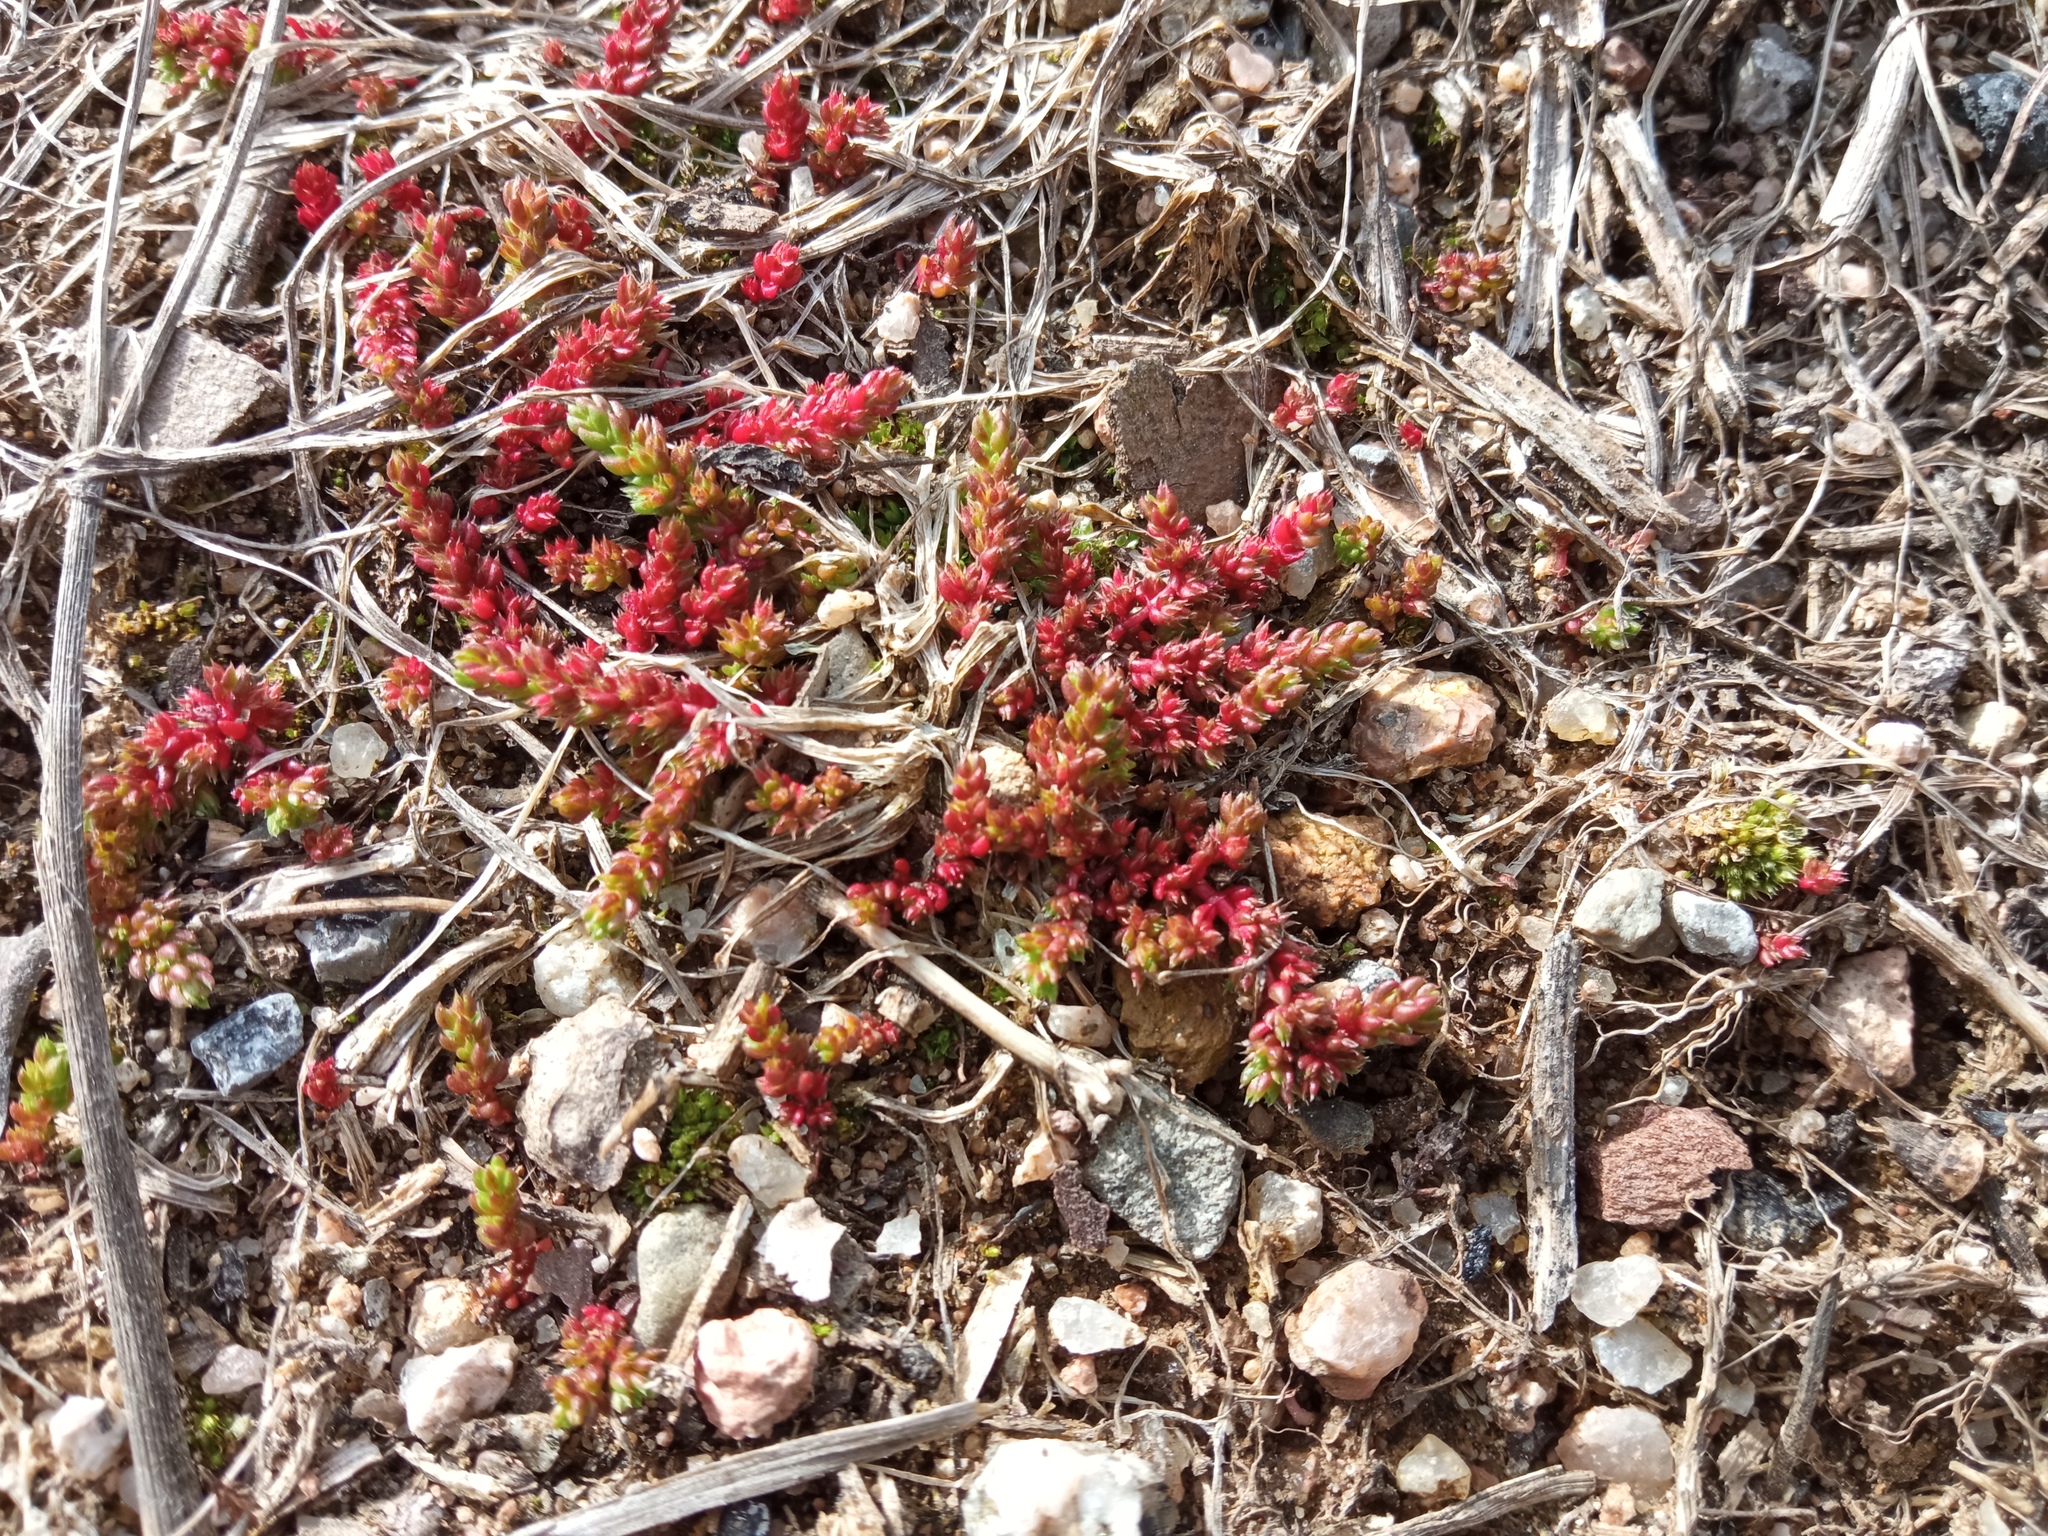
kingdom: Plantae
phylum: Tracheophyta
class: Magnoliopsida
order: Saxifragales
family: Crassulaceae
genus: Crassula
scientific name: Crassula tillaea
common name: Mossy stonecrop
